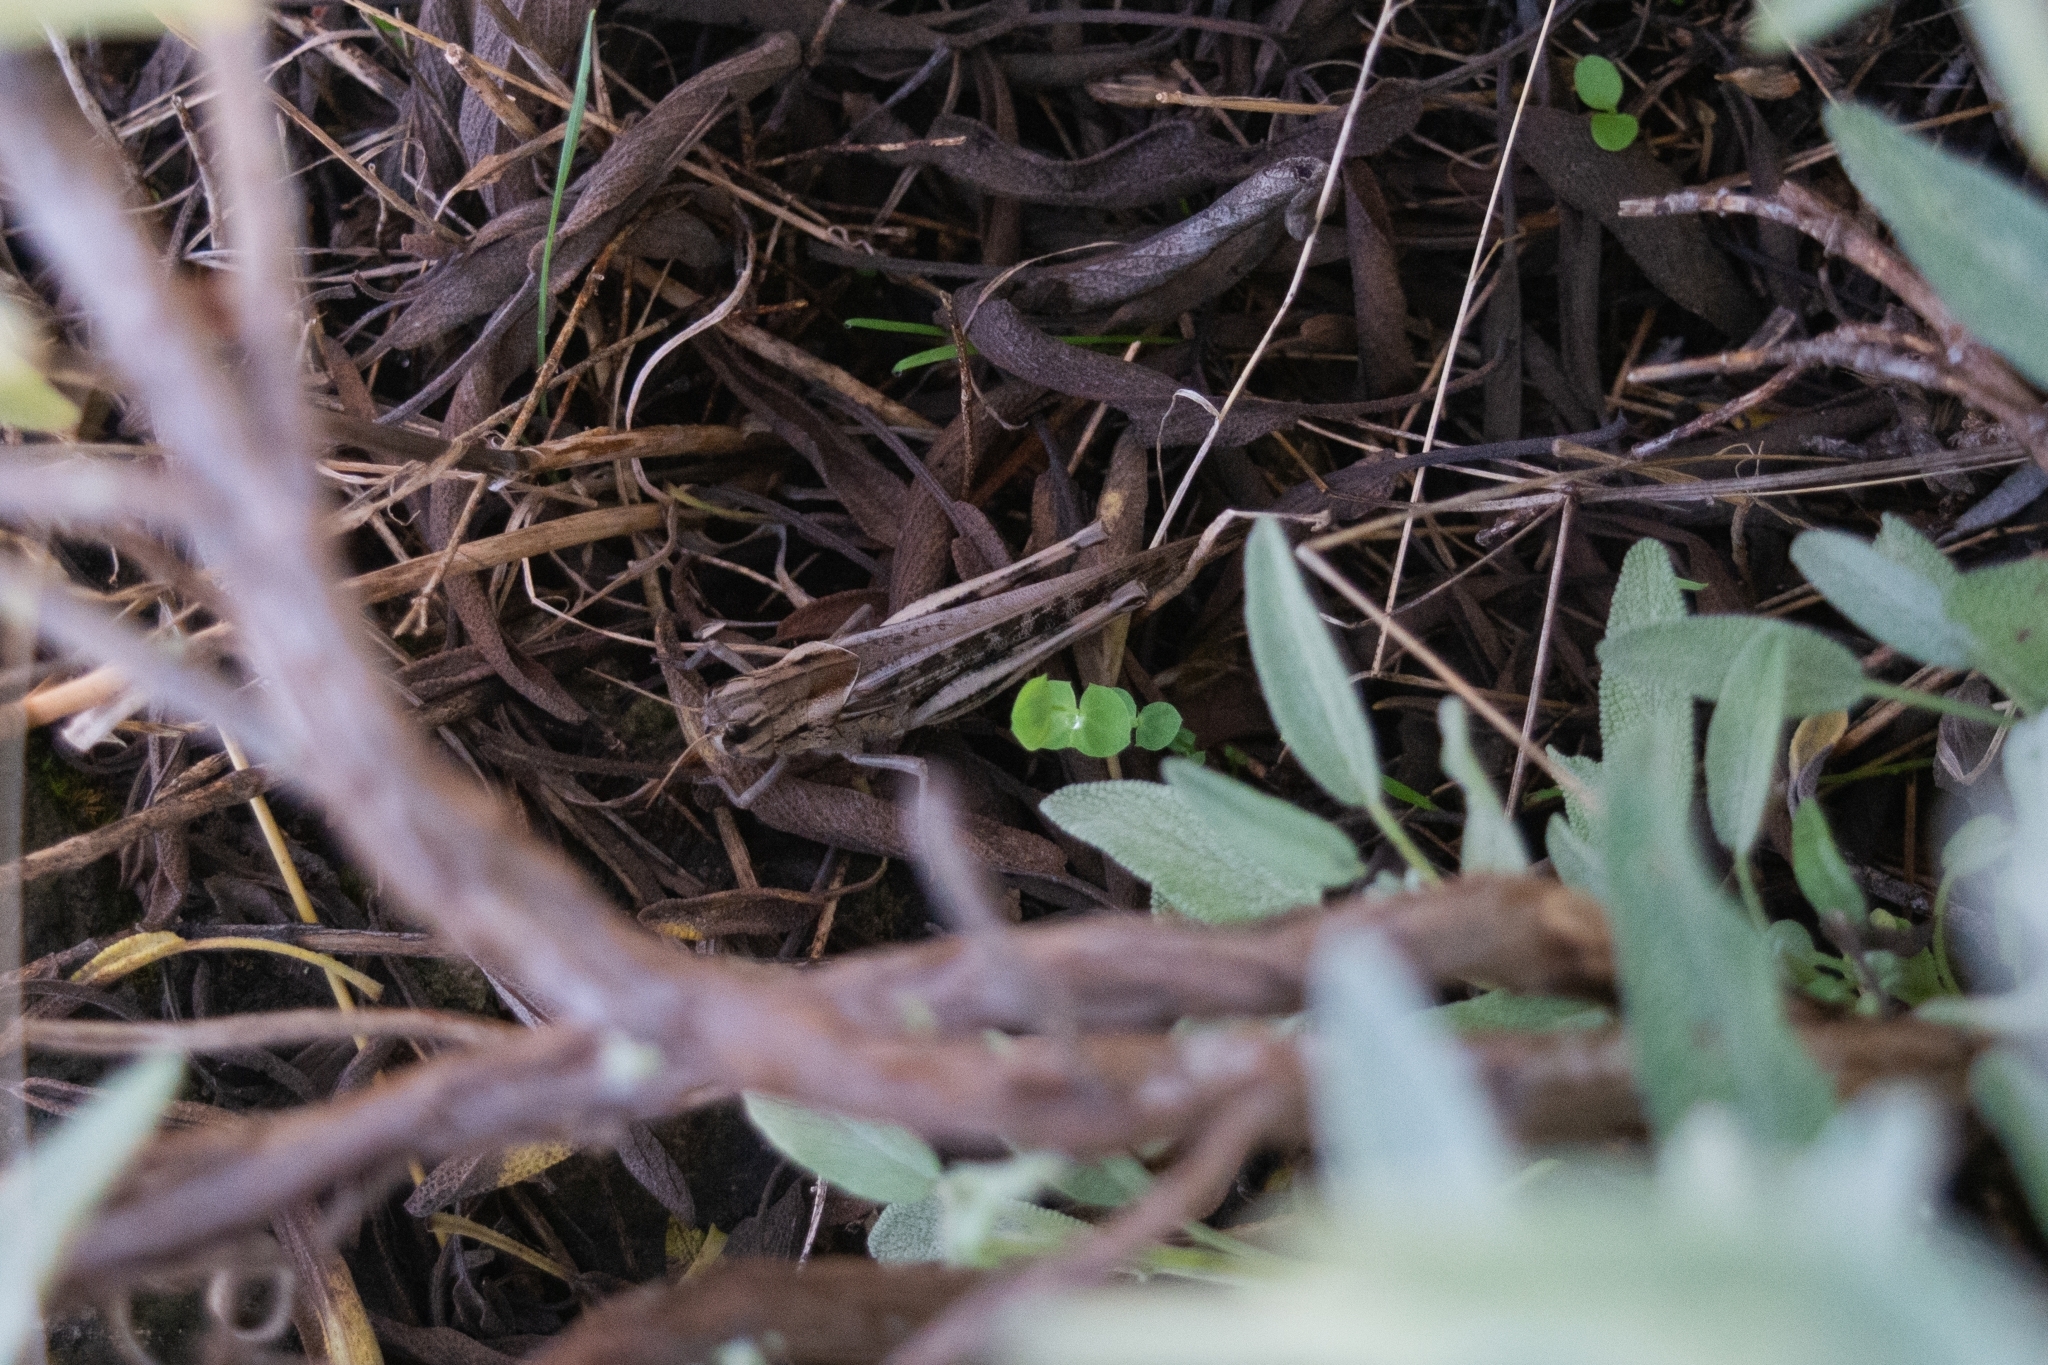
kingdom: Animalia
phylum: Arthropoda
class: Insecta
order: Orthoptera
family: Acrididae
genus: Locusta
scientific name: Locusta migratoria
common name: Migratory locust
